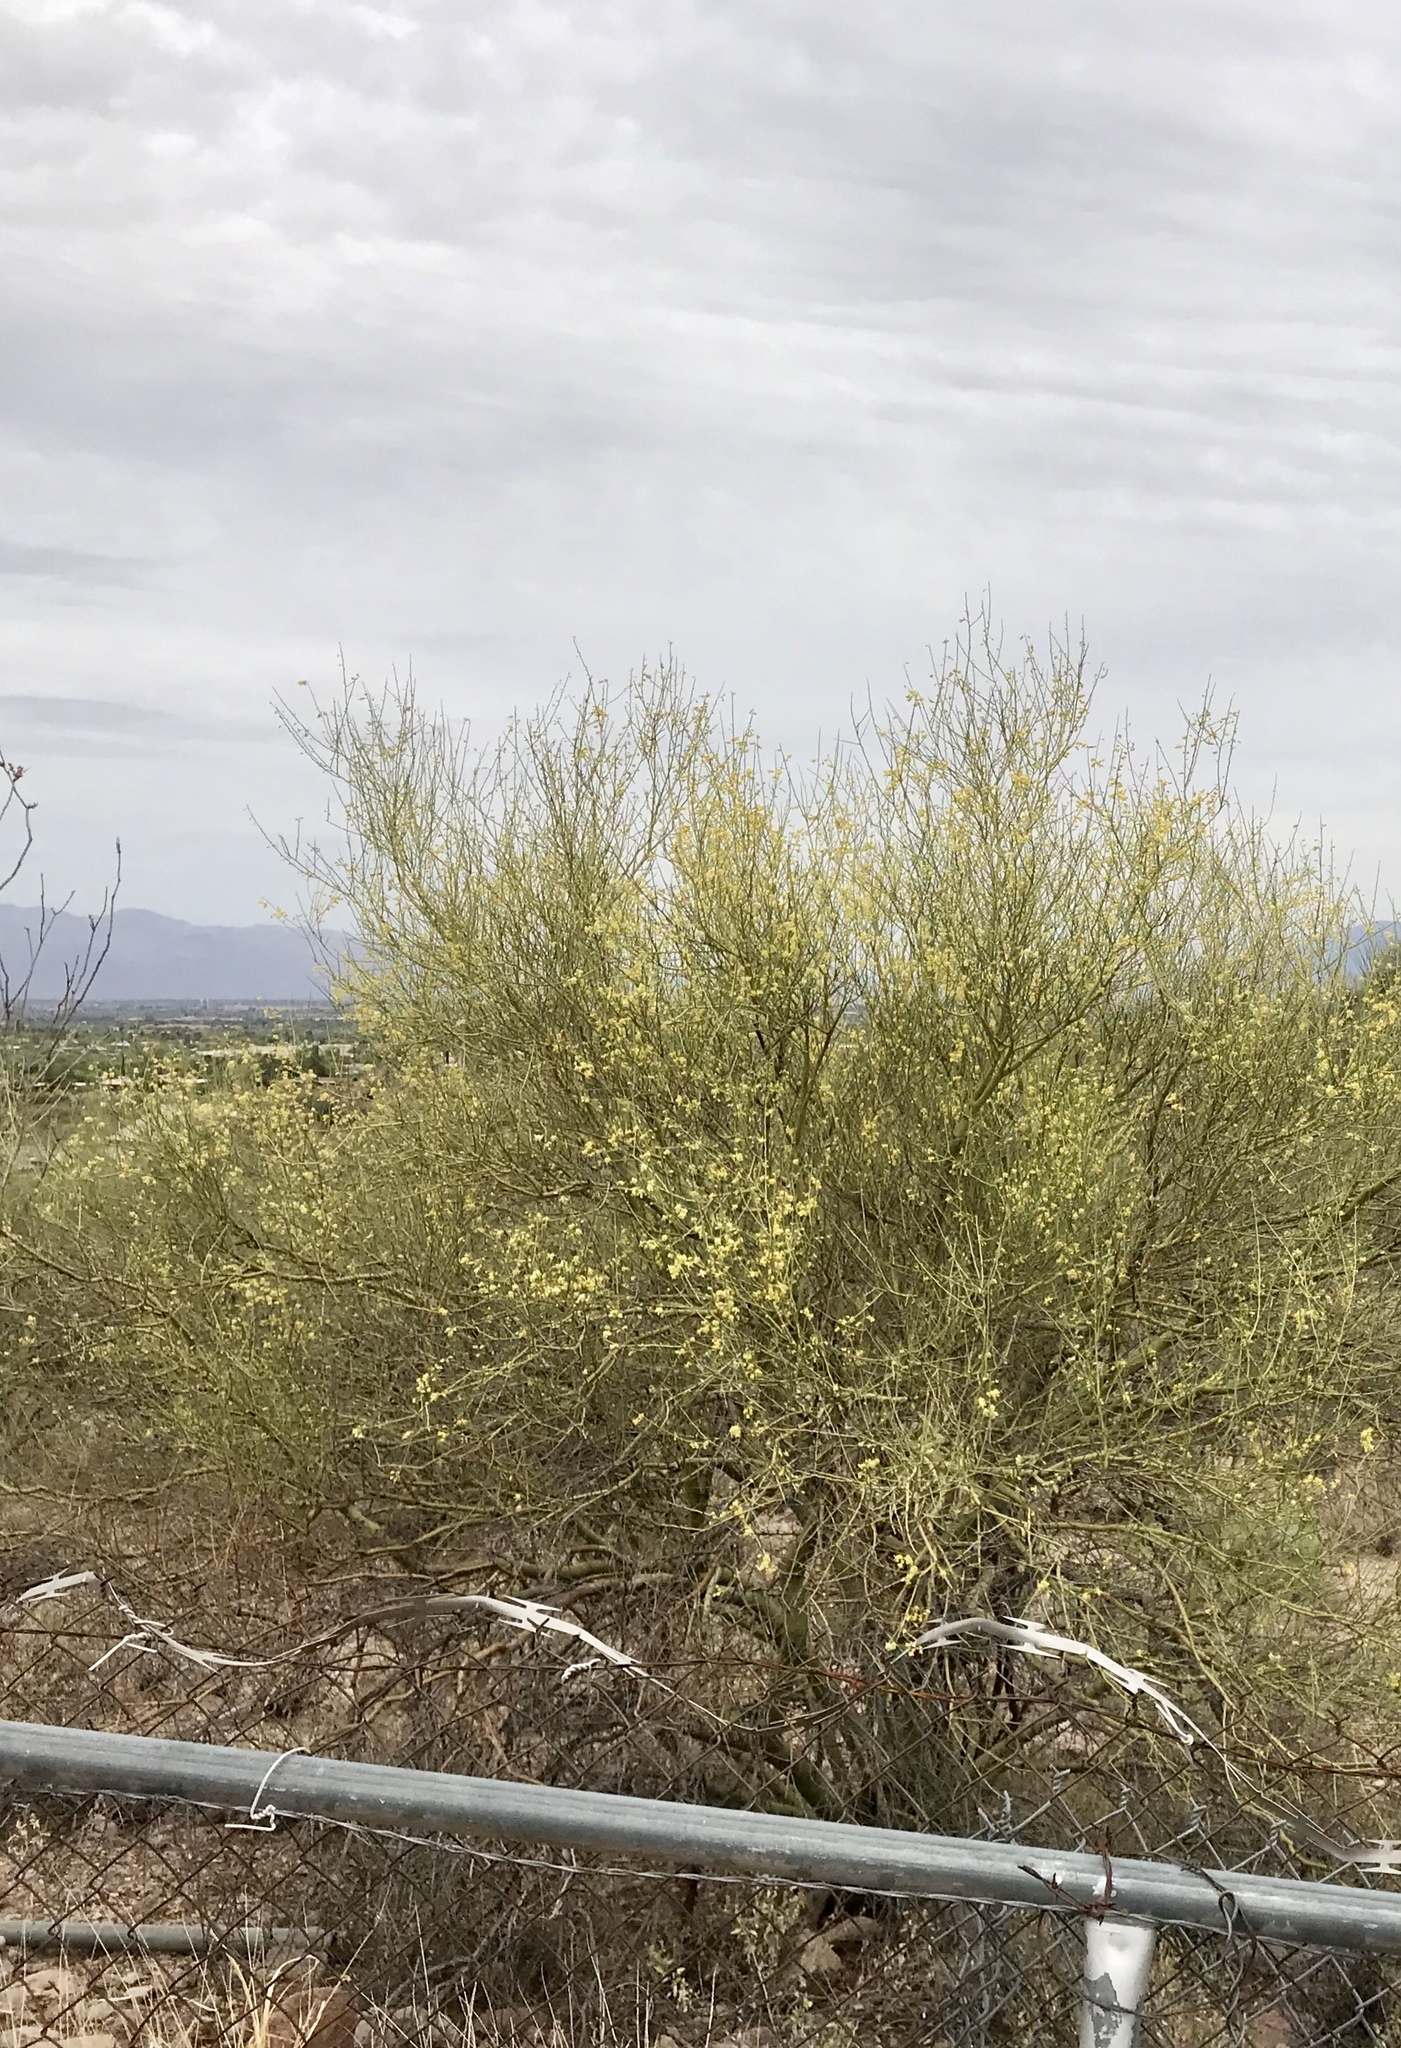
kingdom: Plantae
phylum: Tracheophyta
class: Magnoliopsida
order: Fabales
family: Fabaceae
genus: Parkinsonia
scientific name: Parkinsonia microphylla
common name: Yellow paloverde
